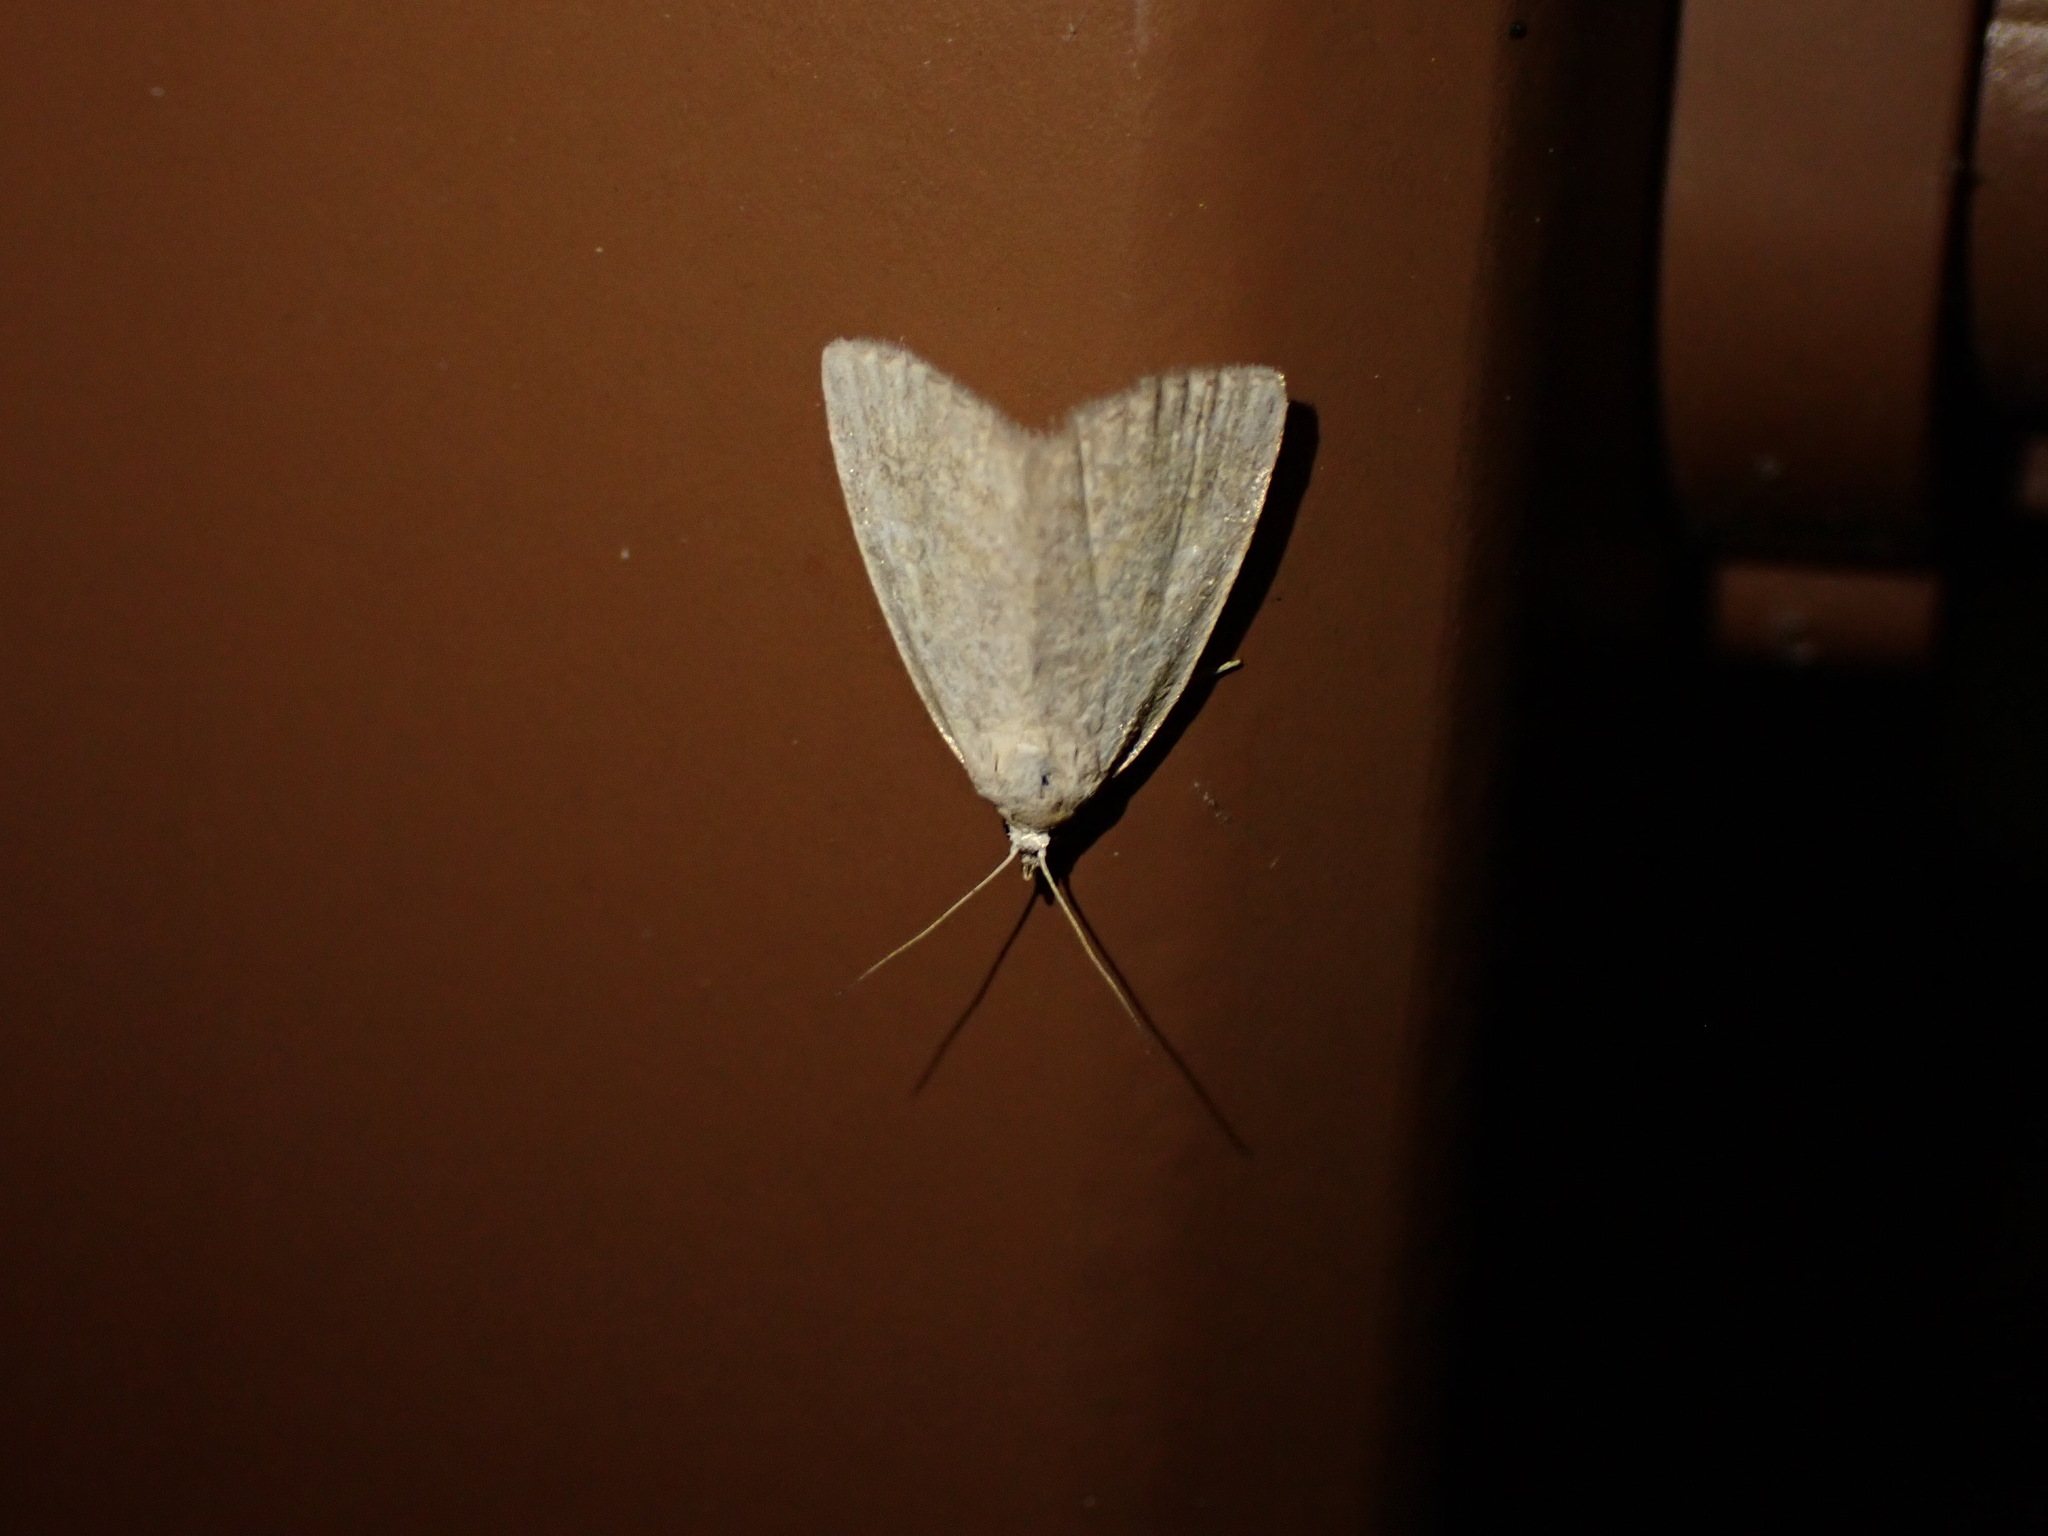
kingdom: Animalia
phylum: Arthropoda
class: Insecta
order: Lepidoptera
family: Noctuidae
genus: Protodeltote
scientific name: Protodeltote albidula
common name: Pale glyph
